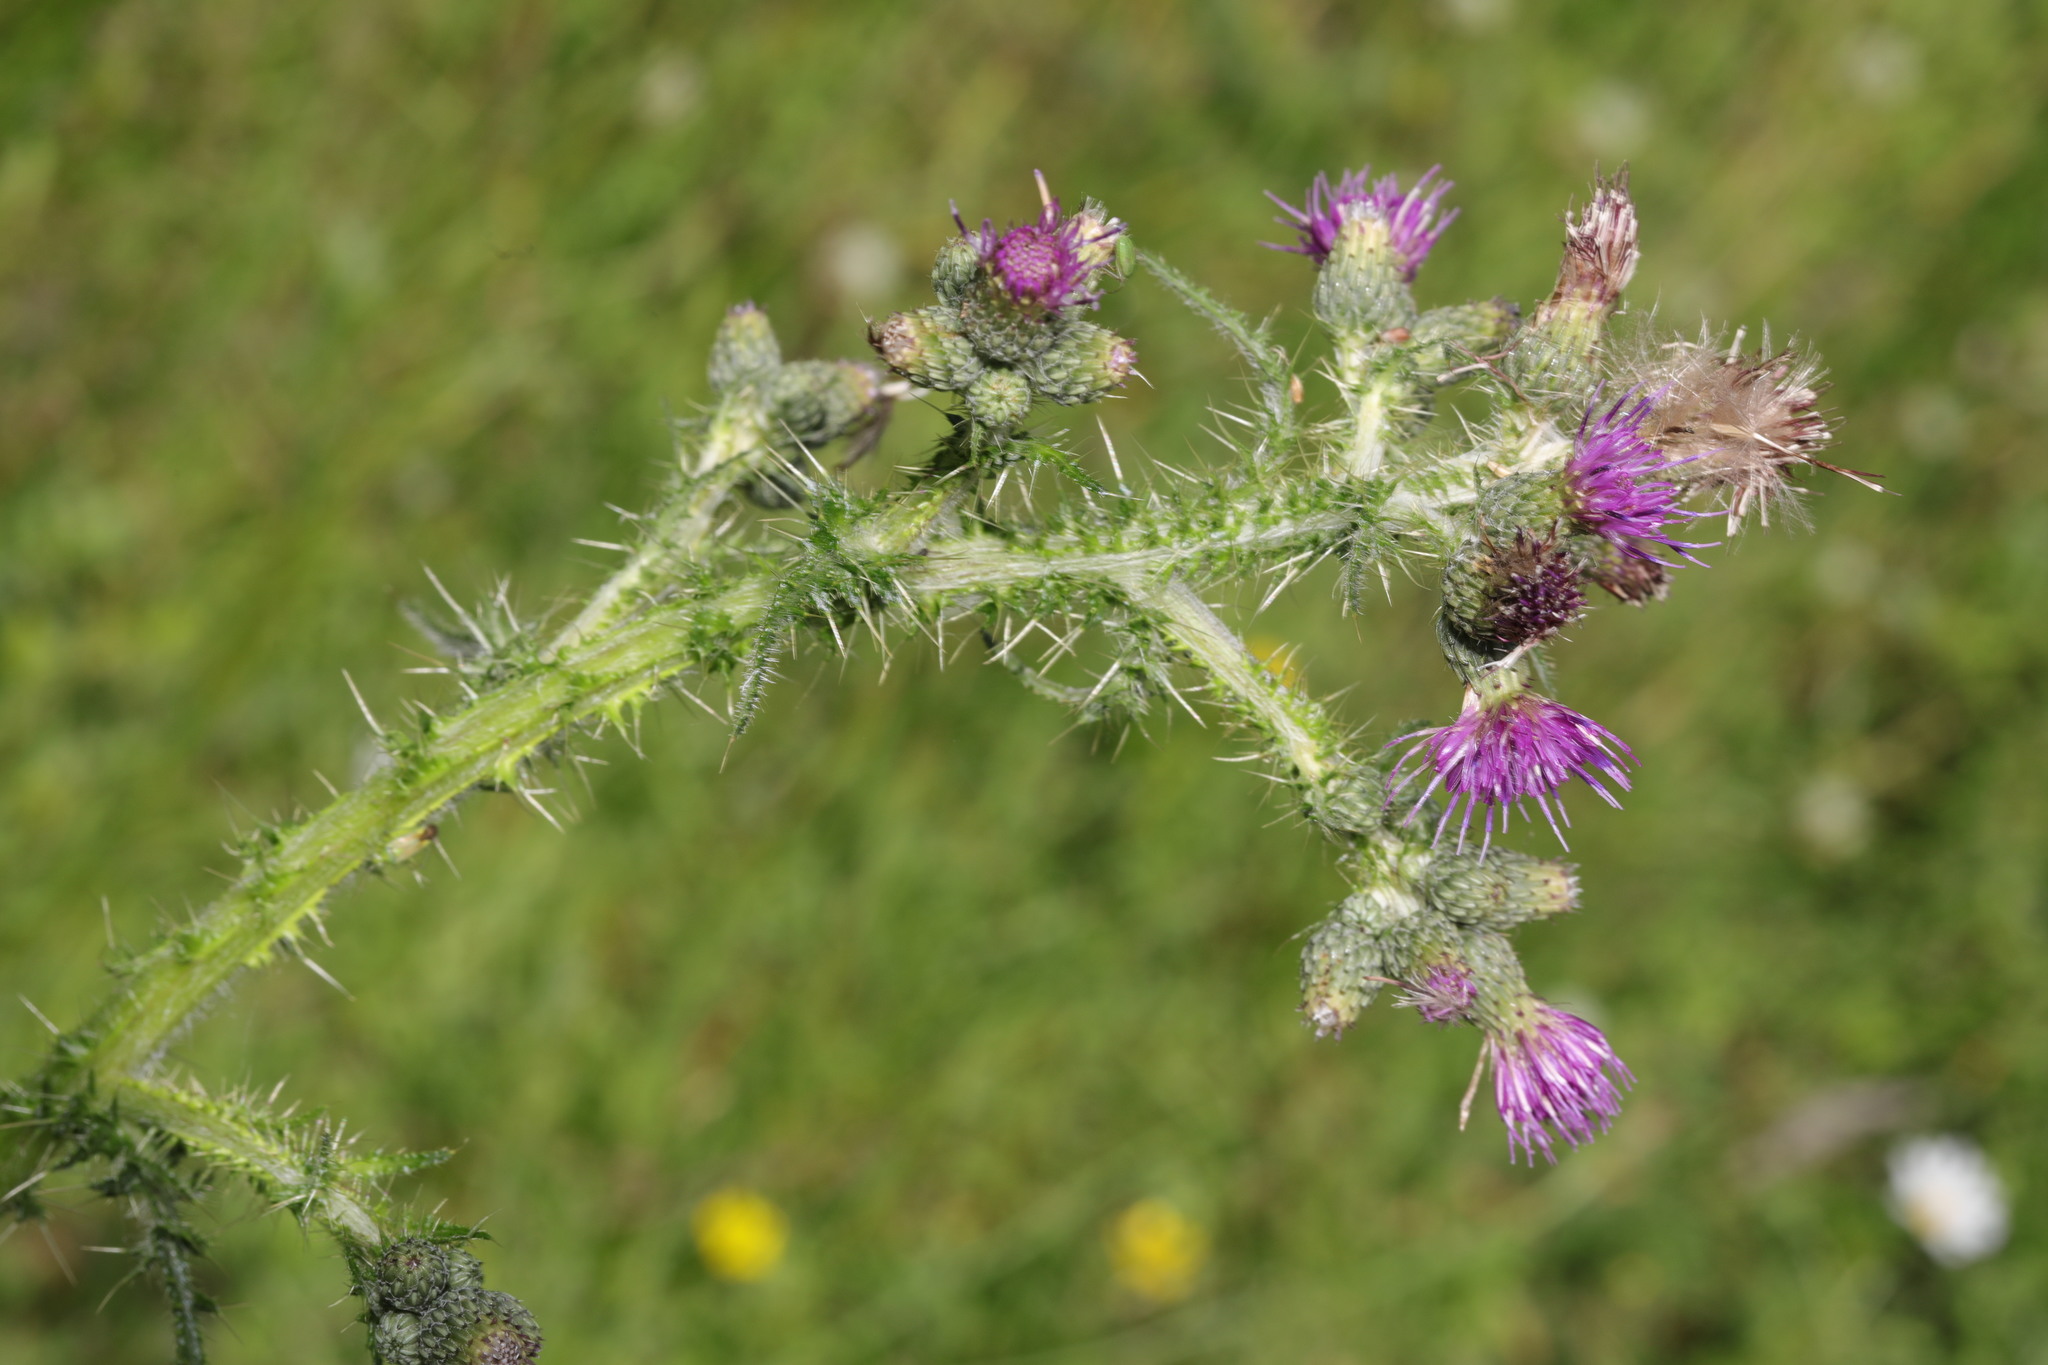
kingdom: Plantae
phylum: Tracheophyta
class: Magnoliopsida
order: Asterales
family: Asteraceae
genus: Cirsium
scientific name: Cirsium palustre
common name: Marsh thistle
